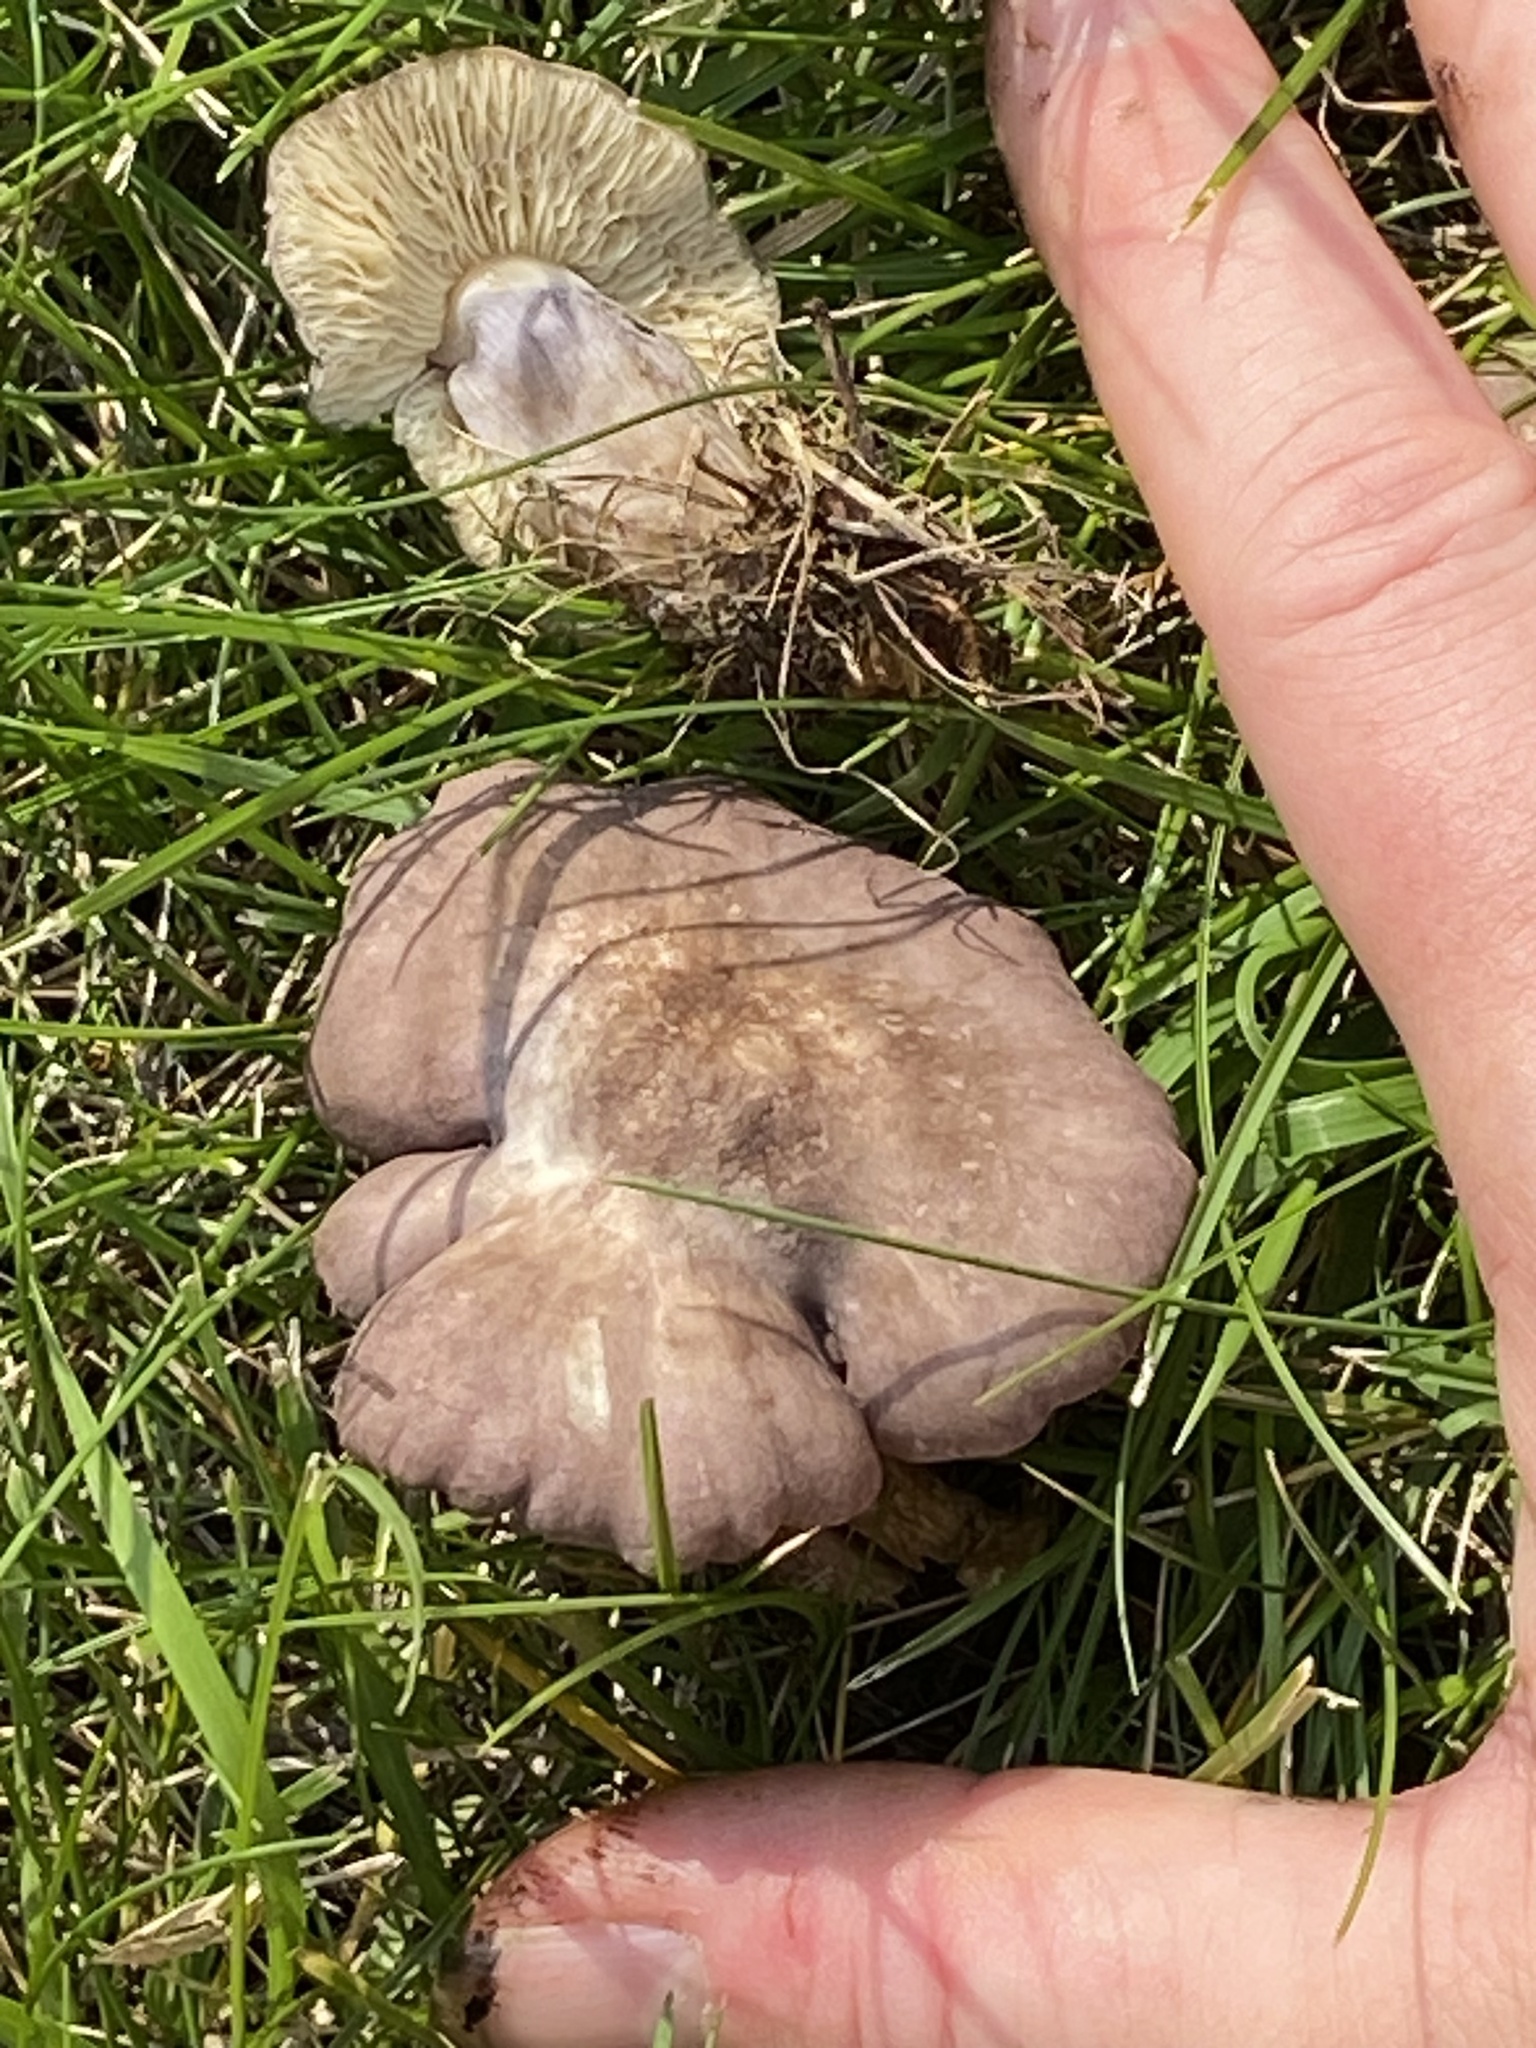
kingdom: Fungi
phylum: Basidiomycota
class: Agaricomycetes
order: Agaricales
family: Lyophyllaceae
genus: Calocybe
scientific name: Calocybe ionides
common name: Violet domecap
